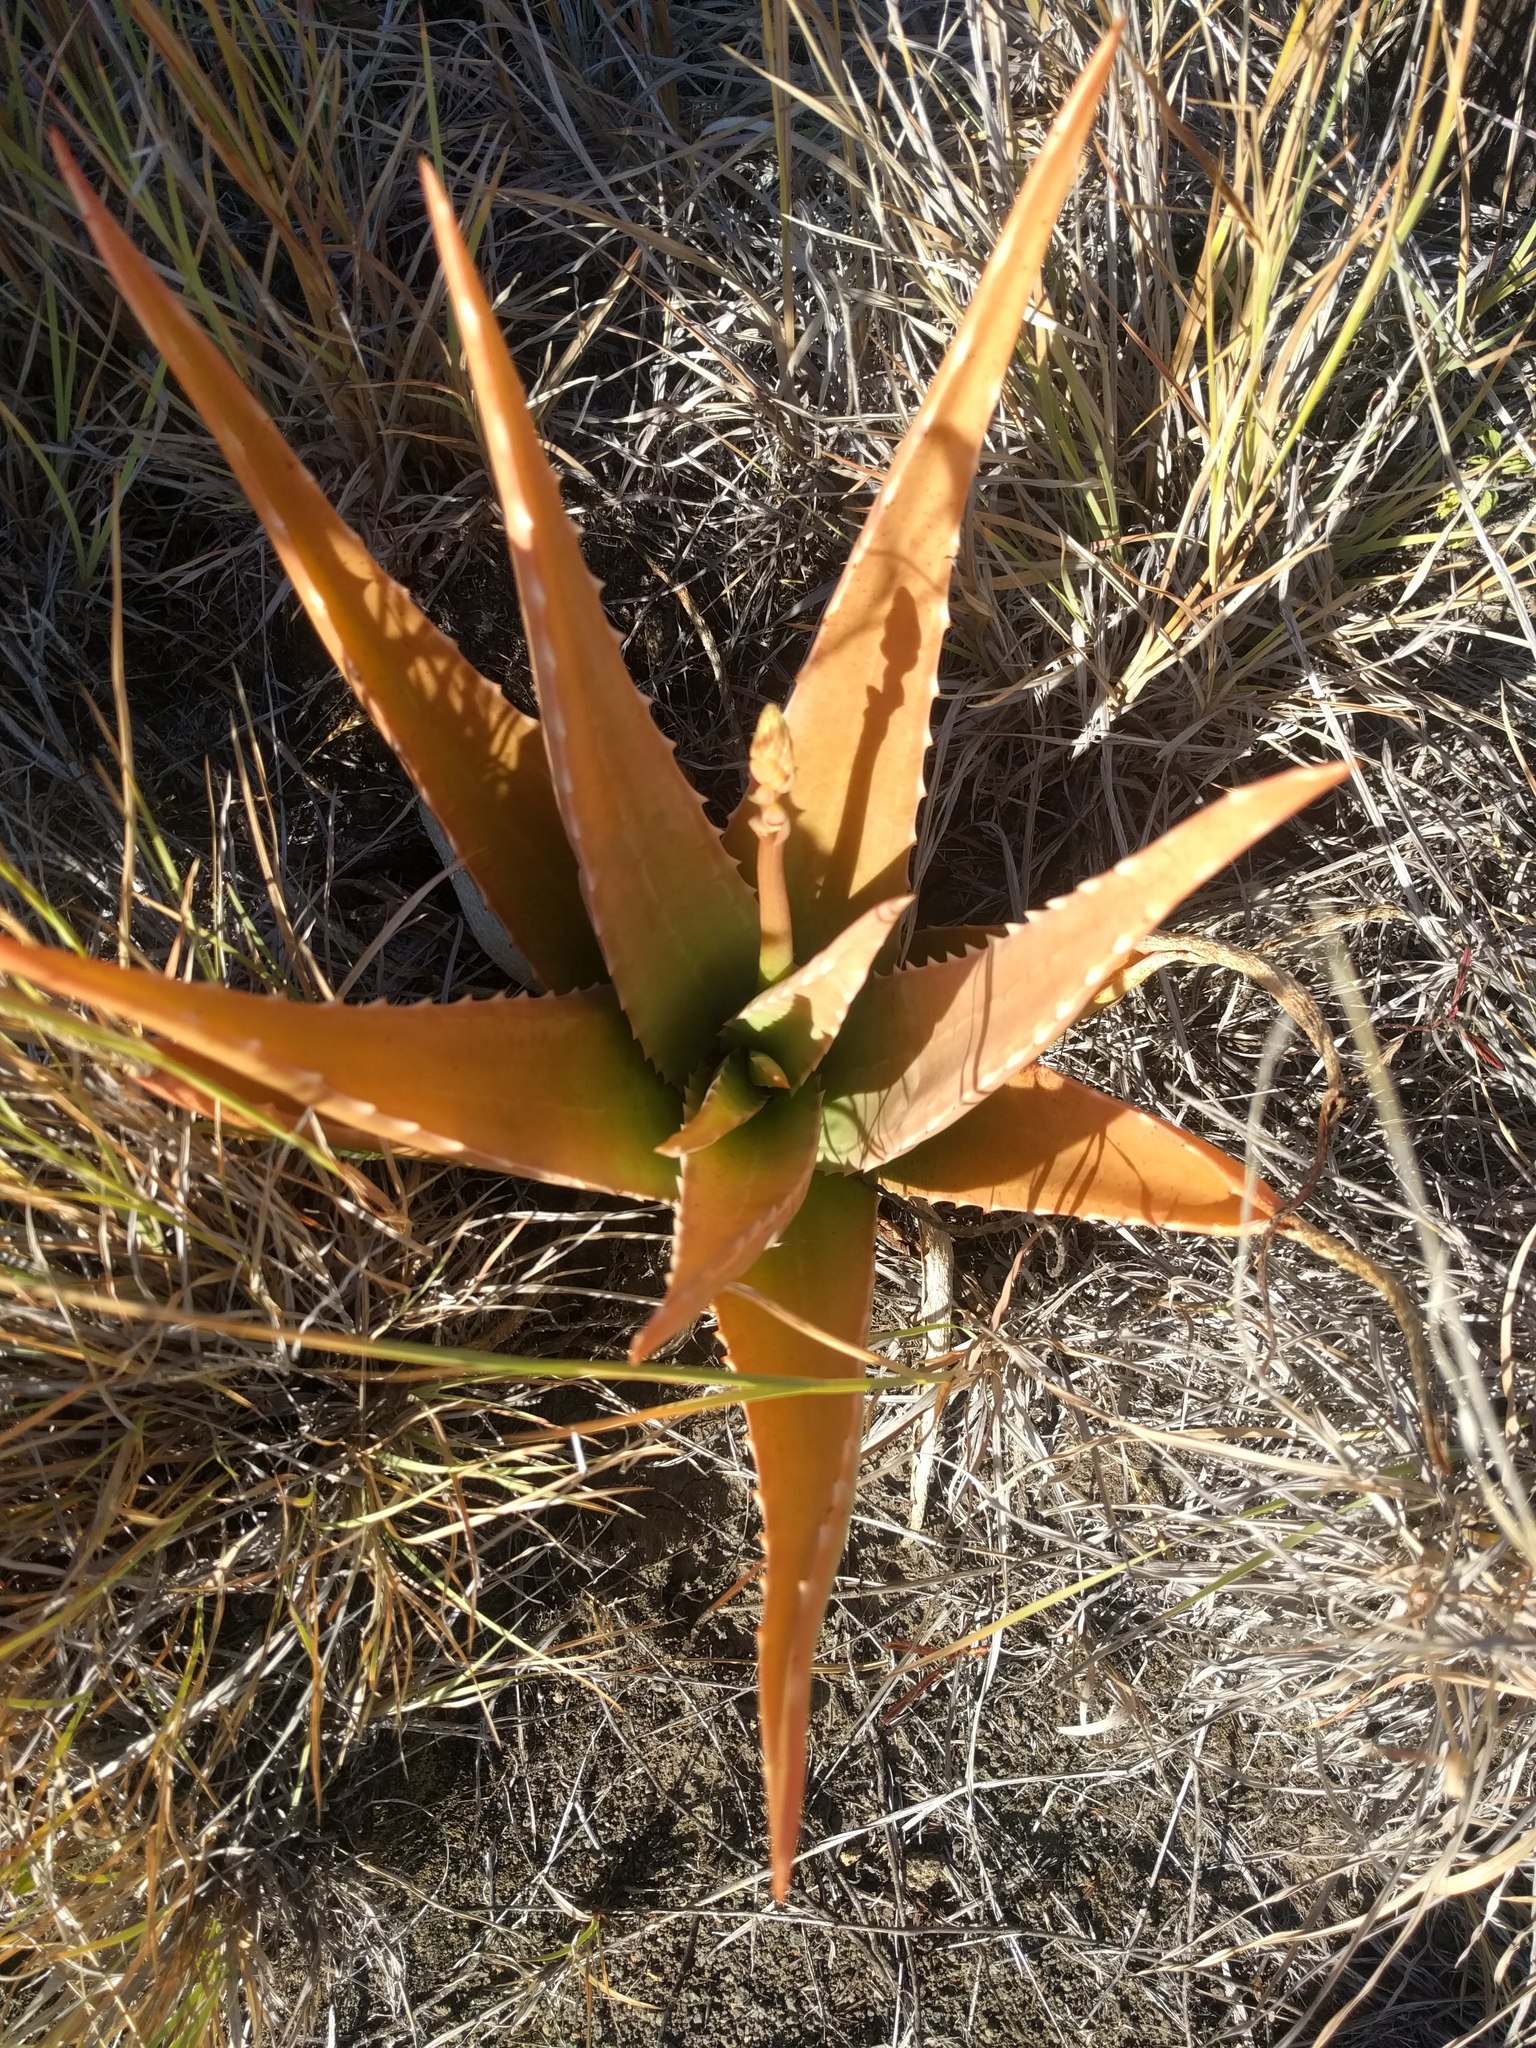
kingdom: Plantae
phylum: Tracheophyta
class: Liliopsida
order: Asparagales
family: Asphodelaceae
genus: Aloe
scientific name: Aloe vera
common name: Barbados aloe
